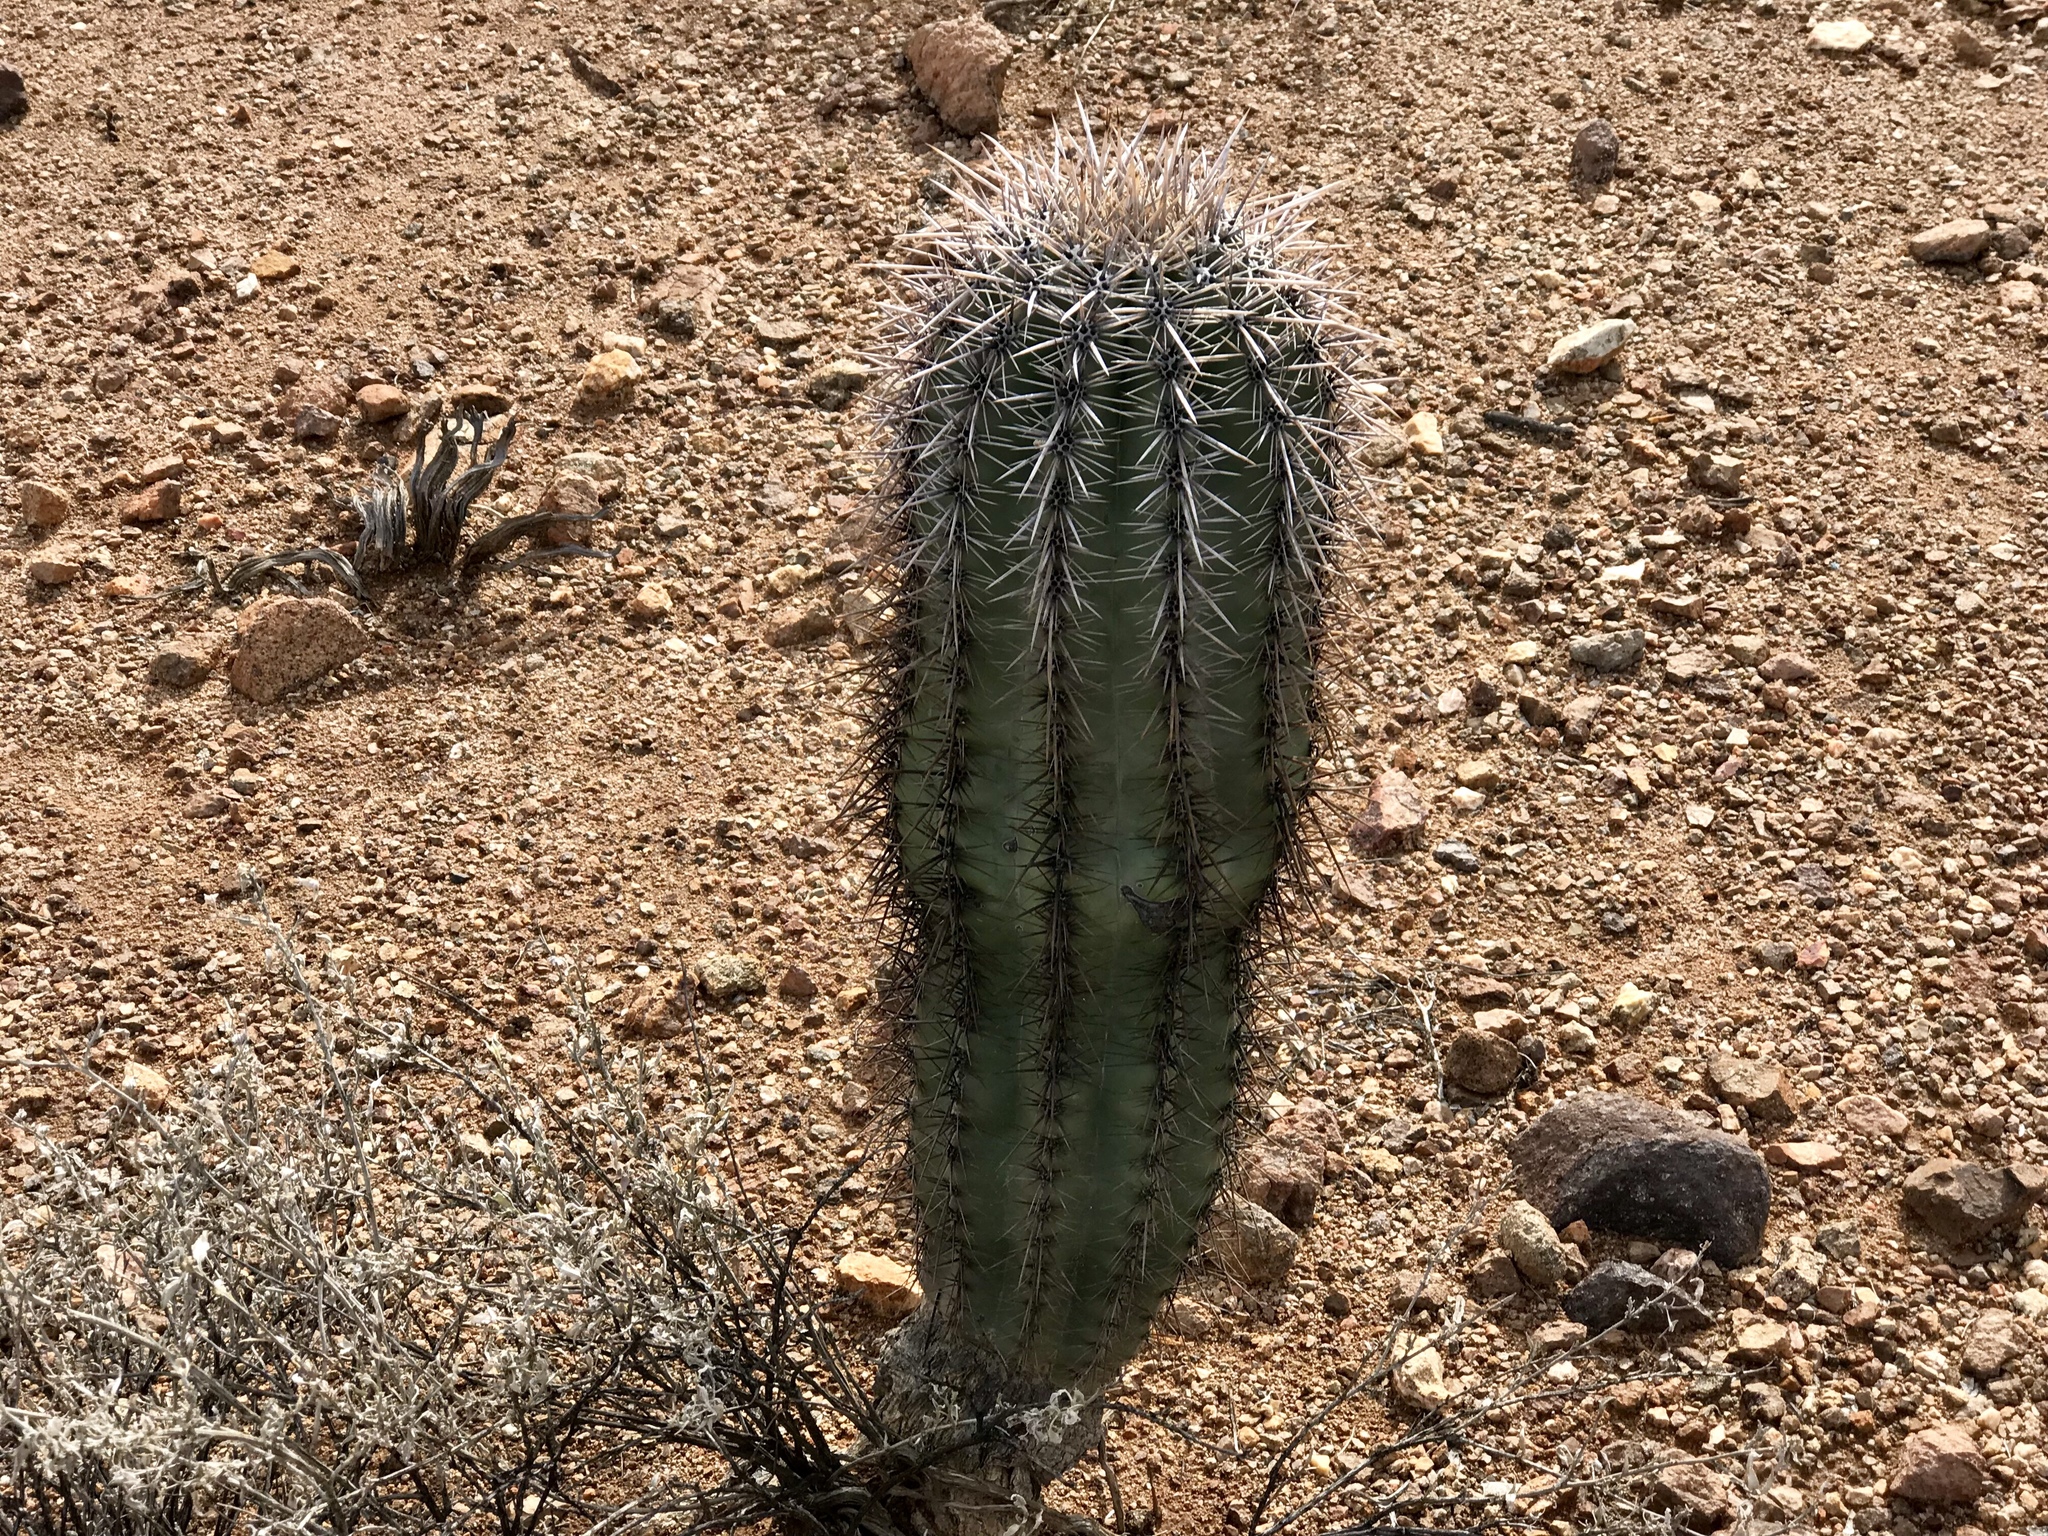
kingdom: Plantae
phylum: Tracheophyta
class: Magnoliopsida
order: Caryophyllales
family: Cactaceae
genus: Carnegiea
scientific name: Carnegiea gigantea
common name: Saguaro
